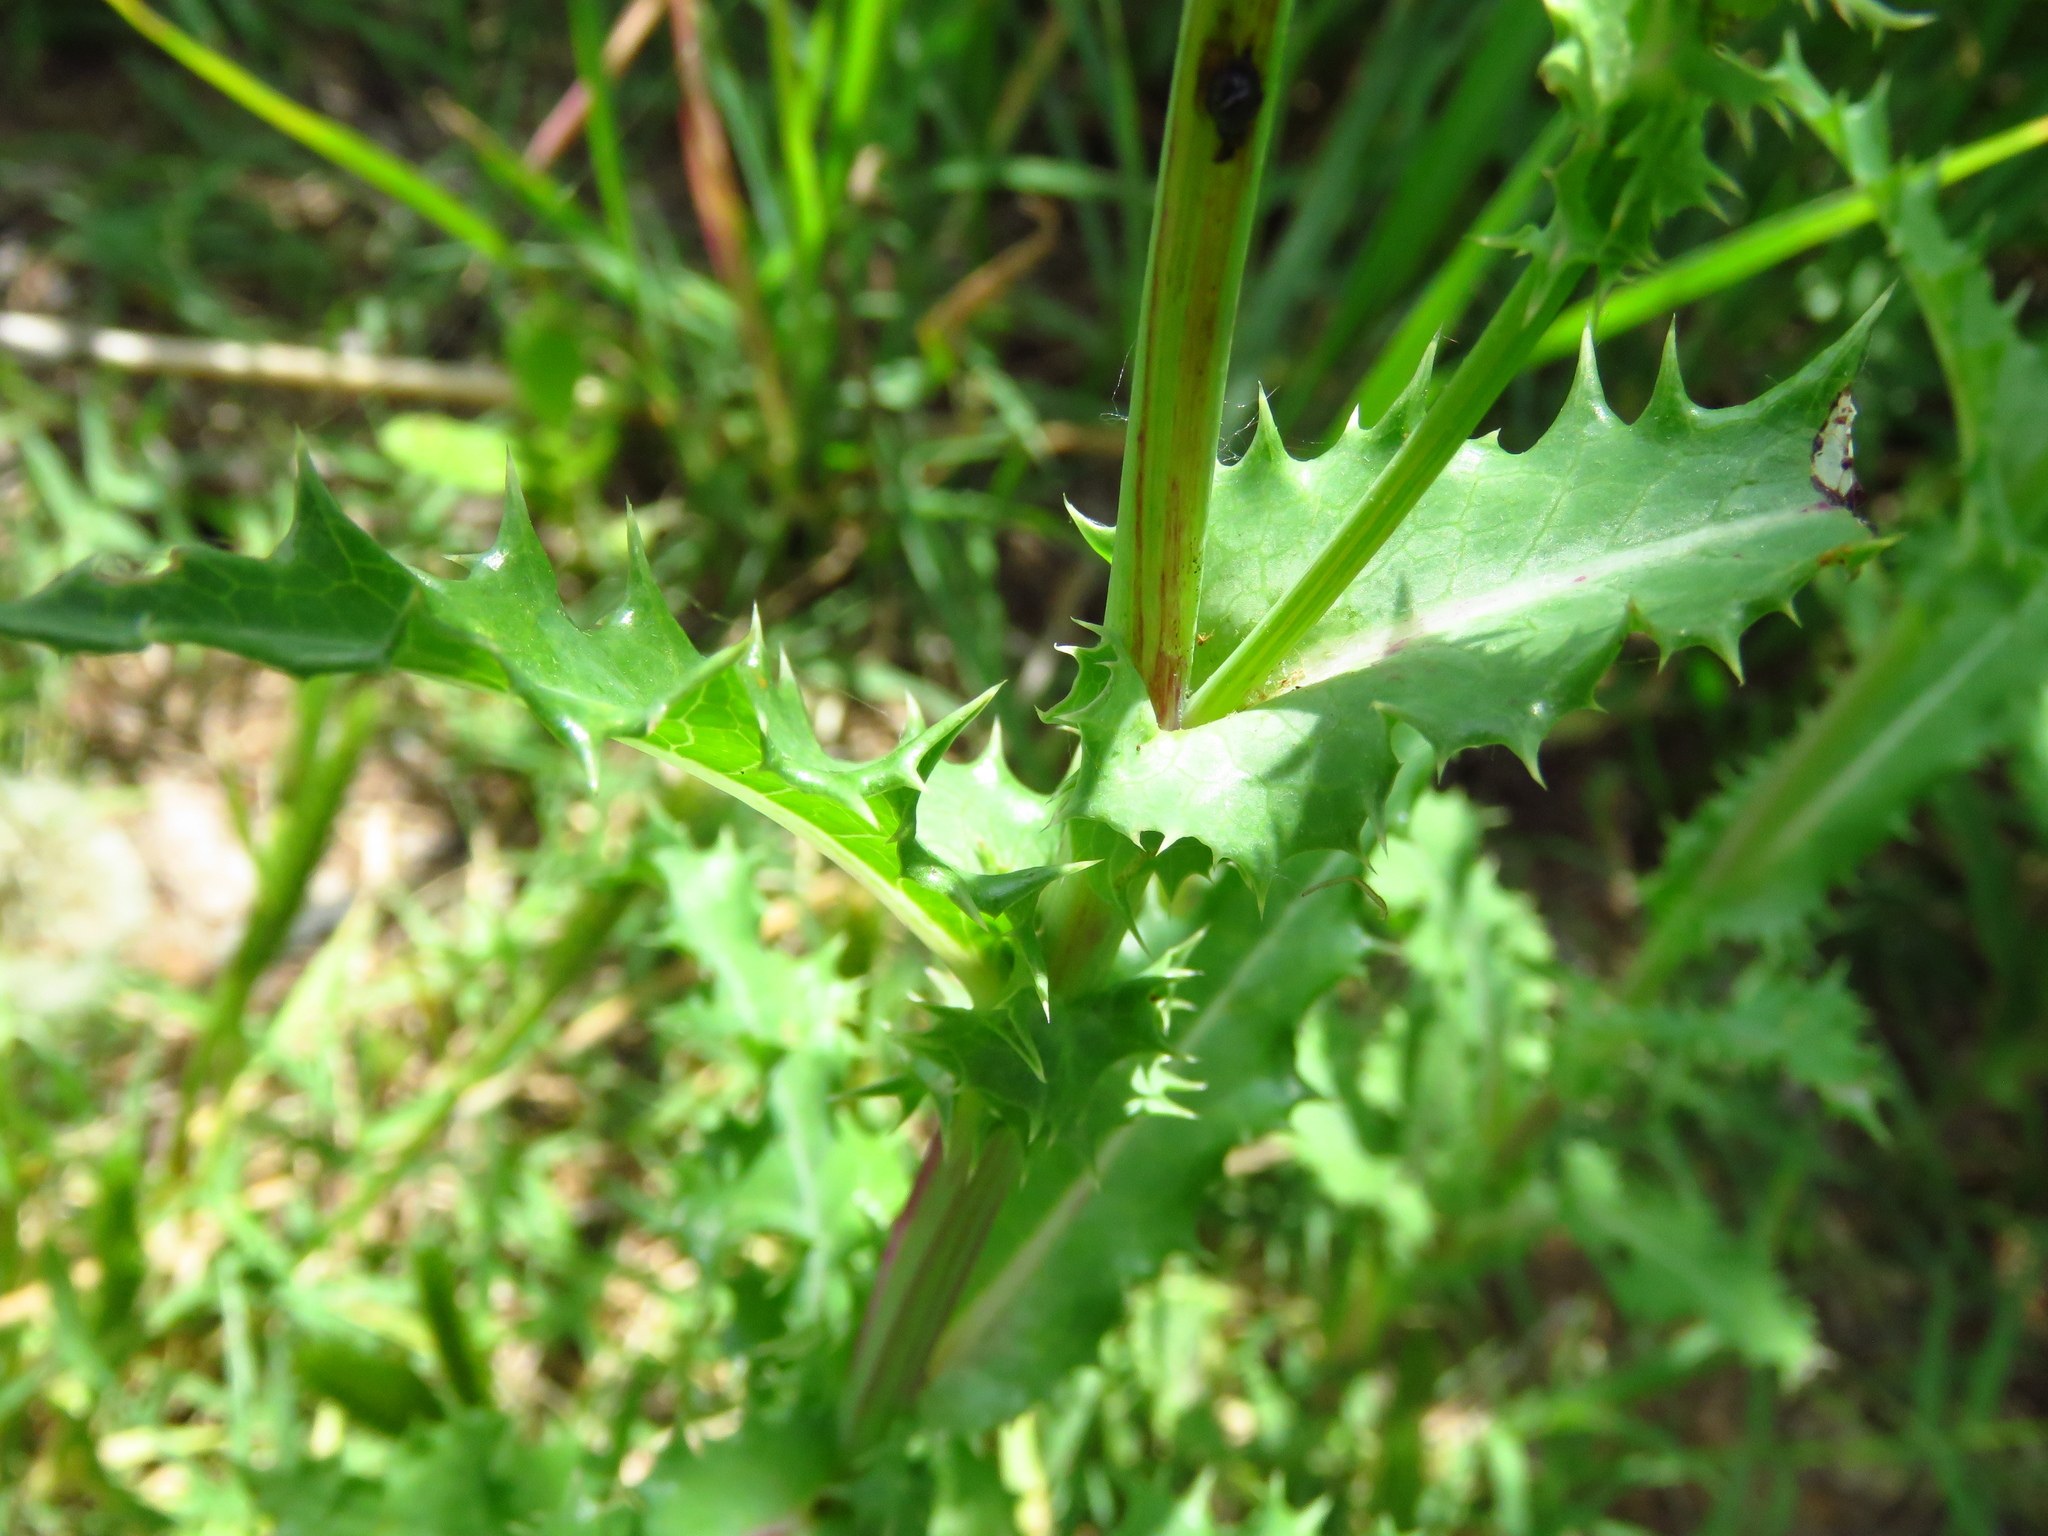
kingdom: Plantae
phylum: Tracheophyta
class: Magnoliopsida
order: Asterales
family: Asteraceae
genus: Sonchus
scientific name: Sonchus asper
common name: Prickly sow-thistle
